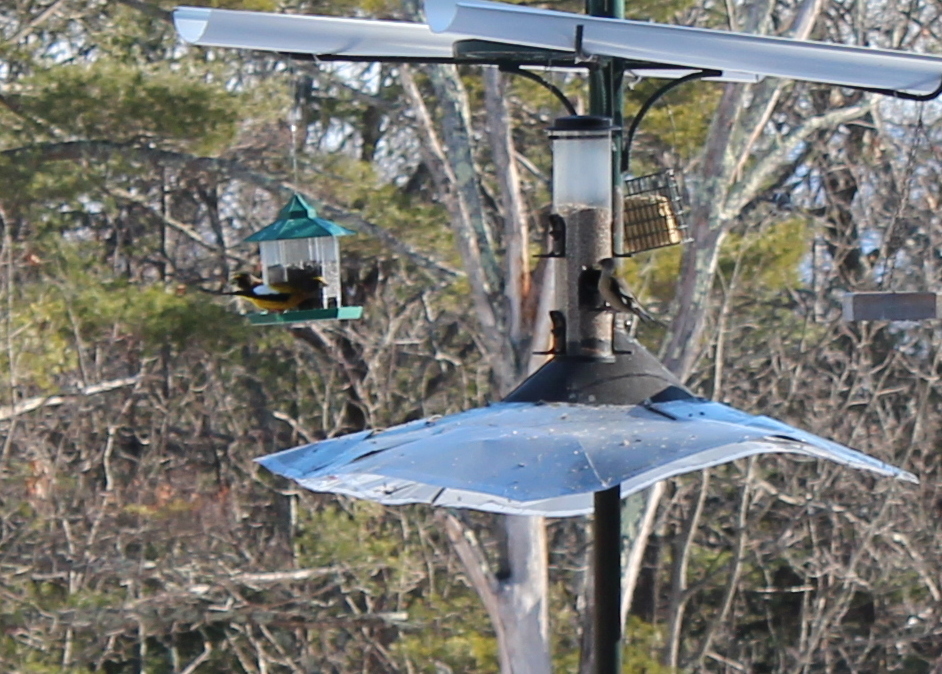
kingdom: Animalia
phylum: Chordata
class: Aves
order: Passeriformes
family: Fringillidae
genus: Hesperiphona
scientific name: Hesperiphona vespertina
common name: Evening grosbeak
